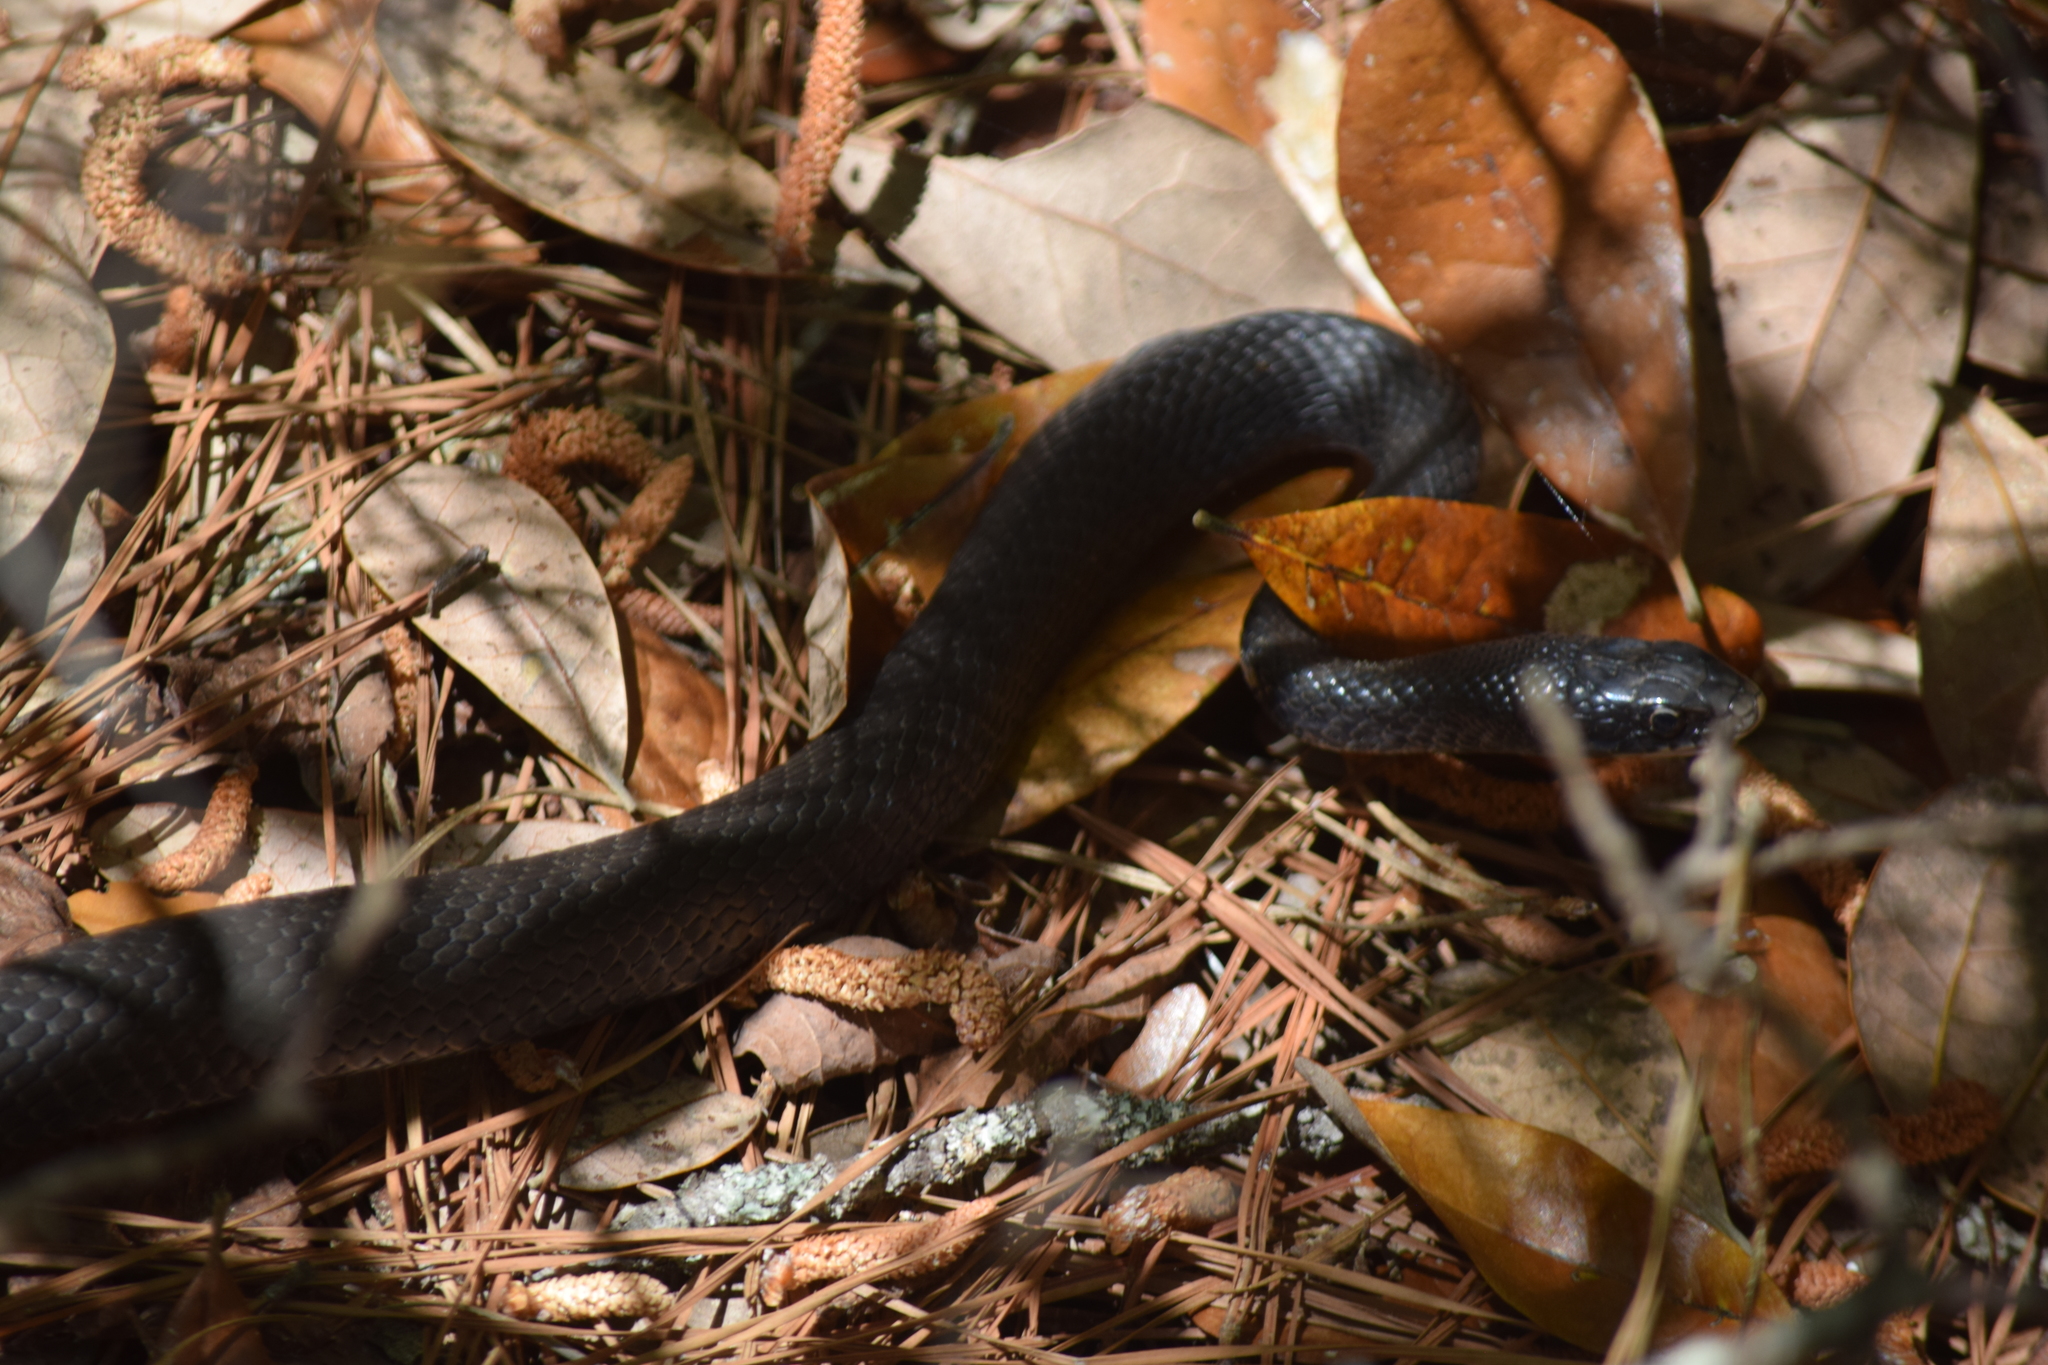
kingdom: Animalia
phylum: Chordata
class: Squamata
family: Colubridae
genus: Coluber
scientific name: Coluber constrictor
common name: Eastern racer
